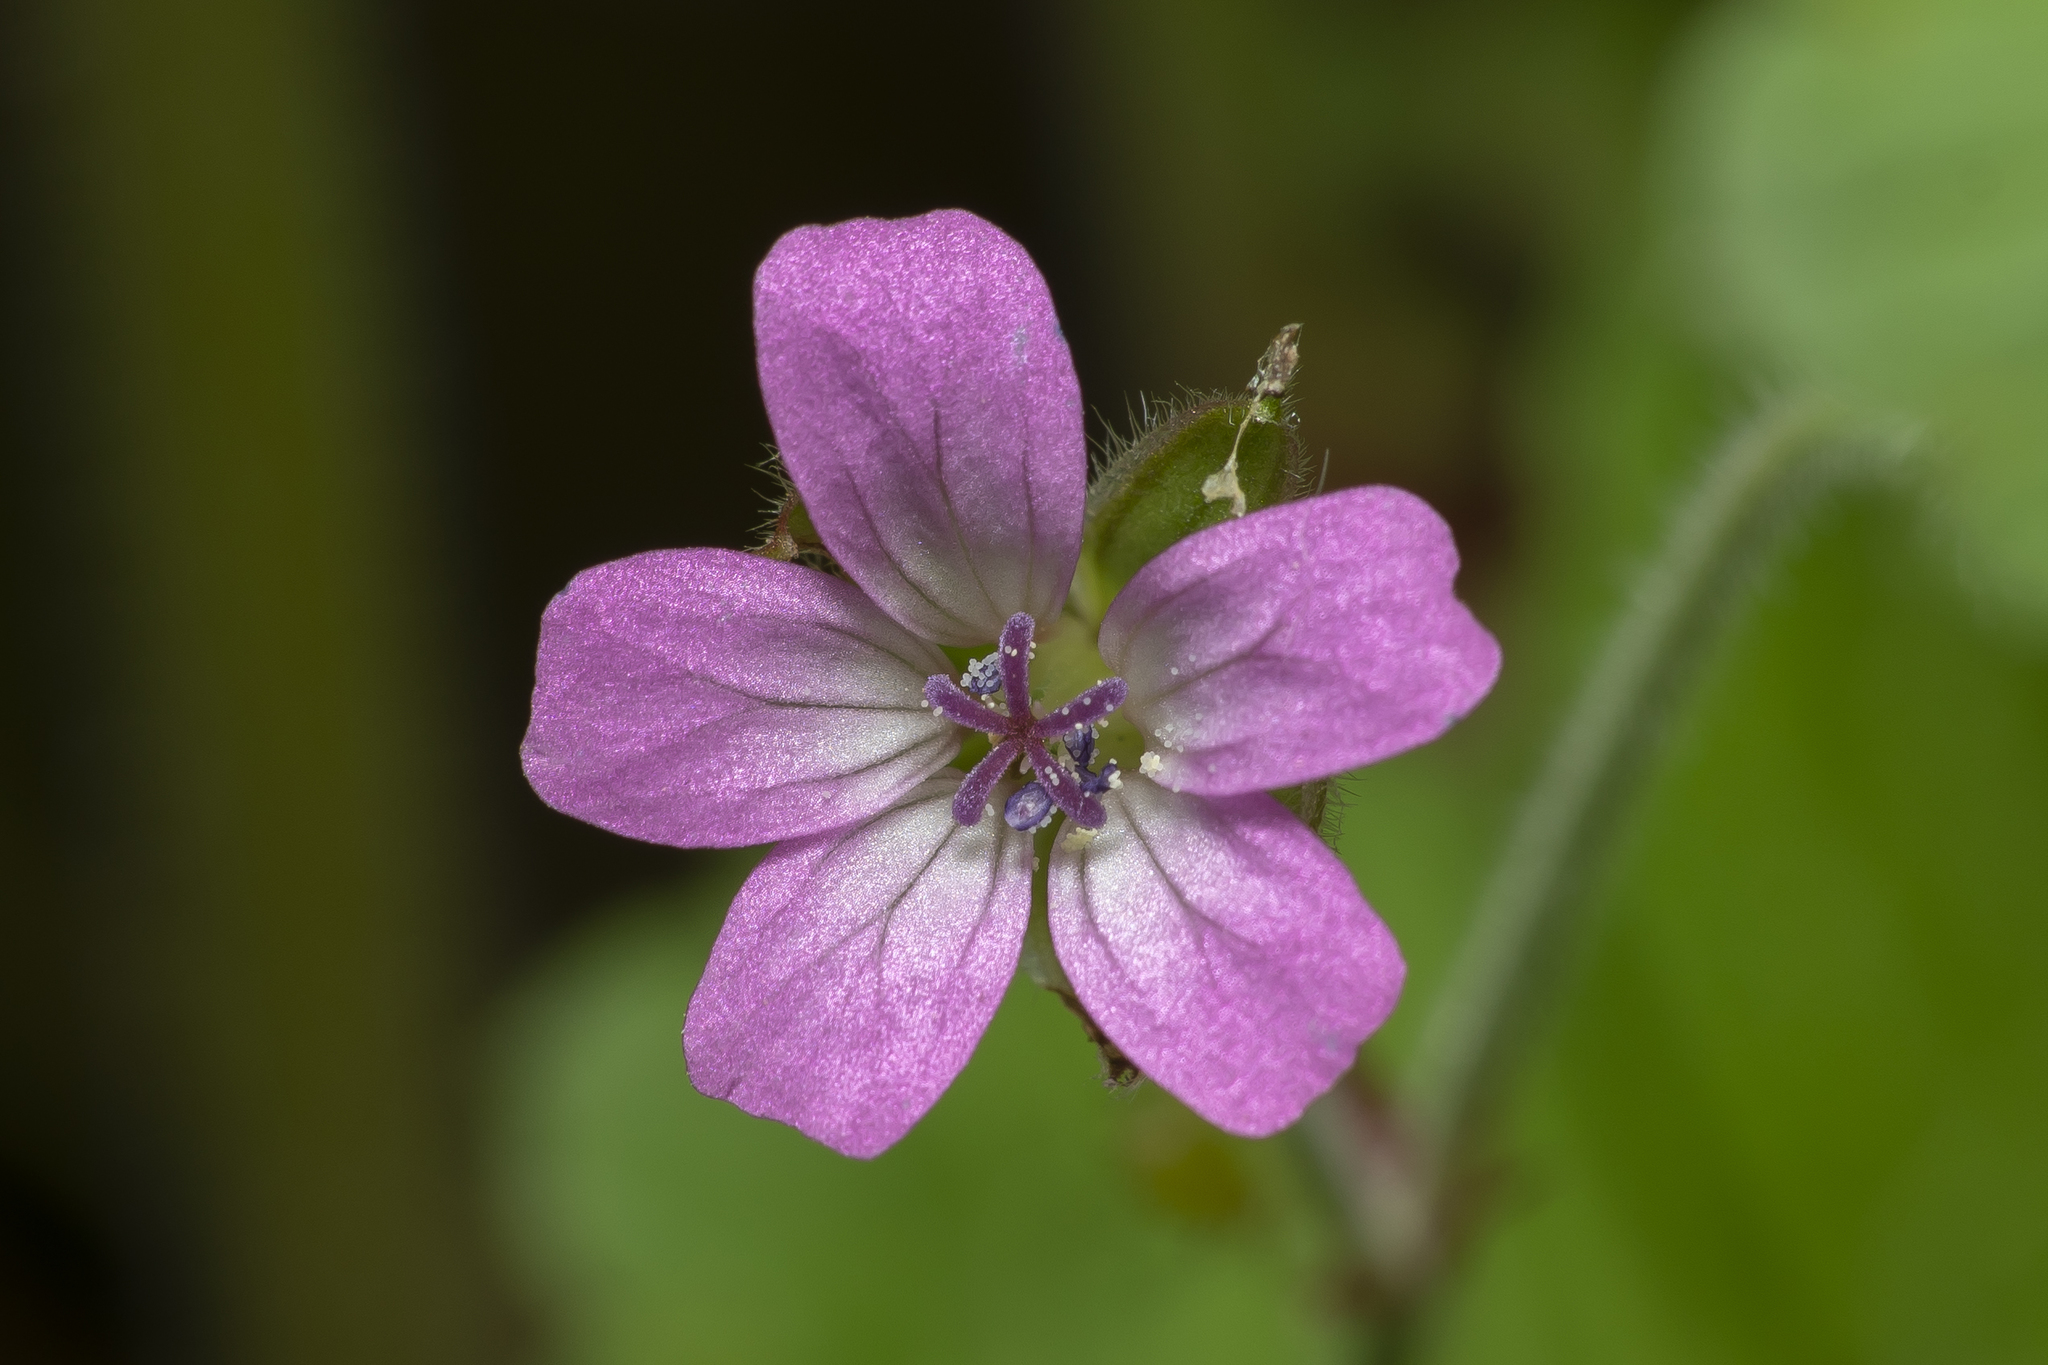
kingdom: Plantae
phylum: Tracheophyta
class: Magnoliopsida
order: Geraniales
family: Geraniaceae
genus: Geranium
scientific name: Geranium rotundifolium
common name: Round-leaved crane's-bill
